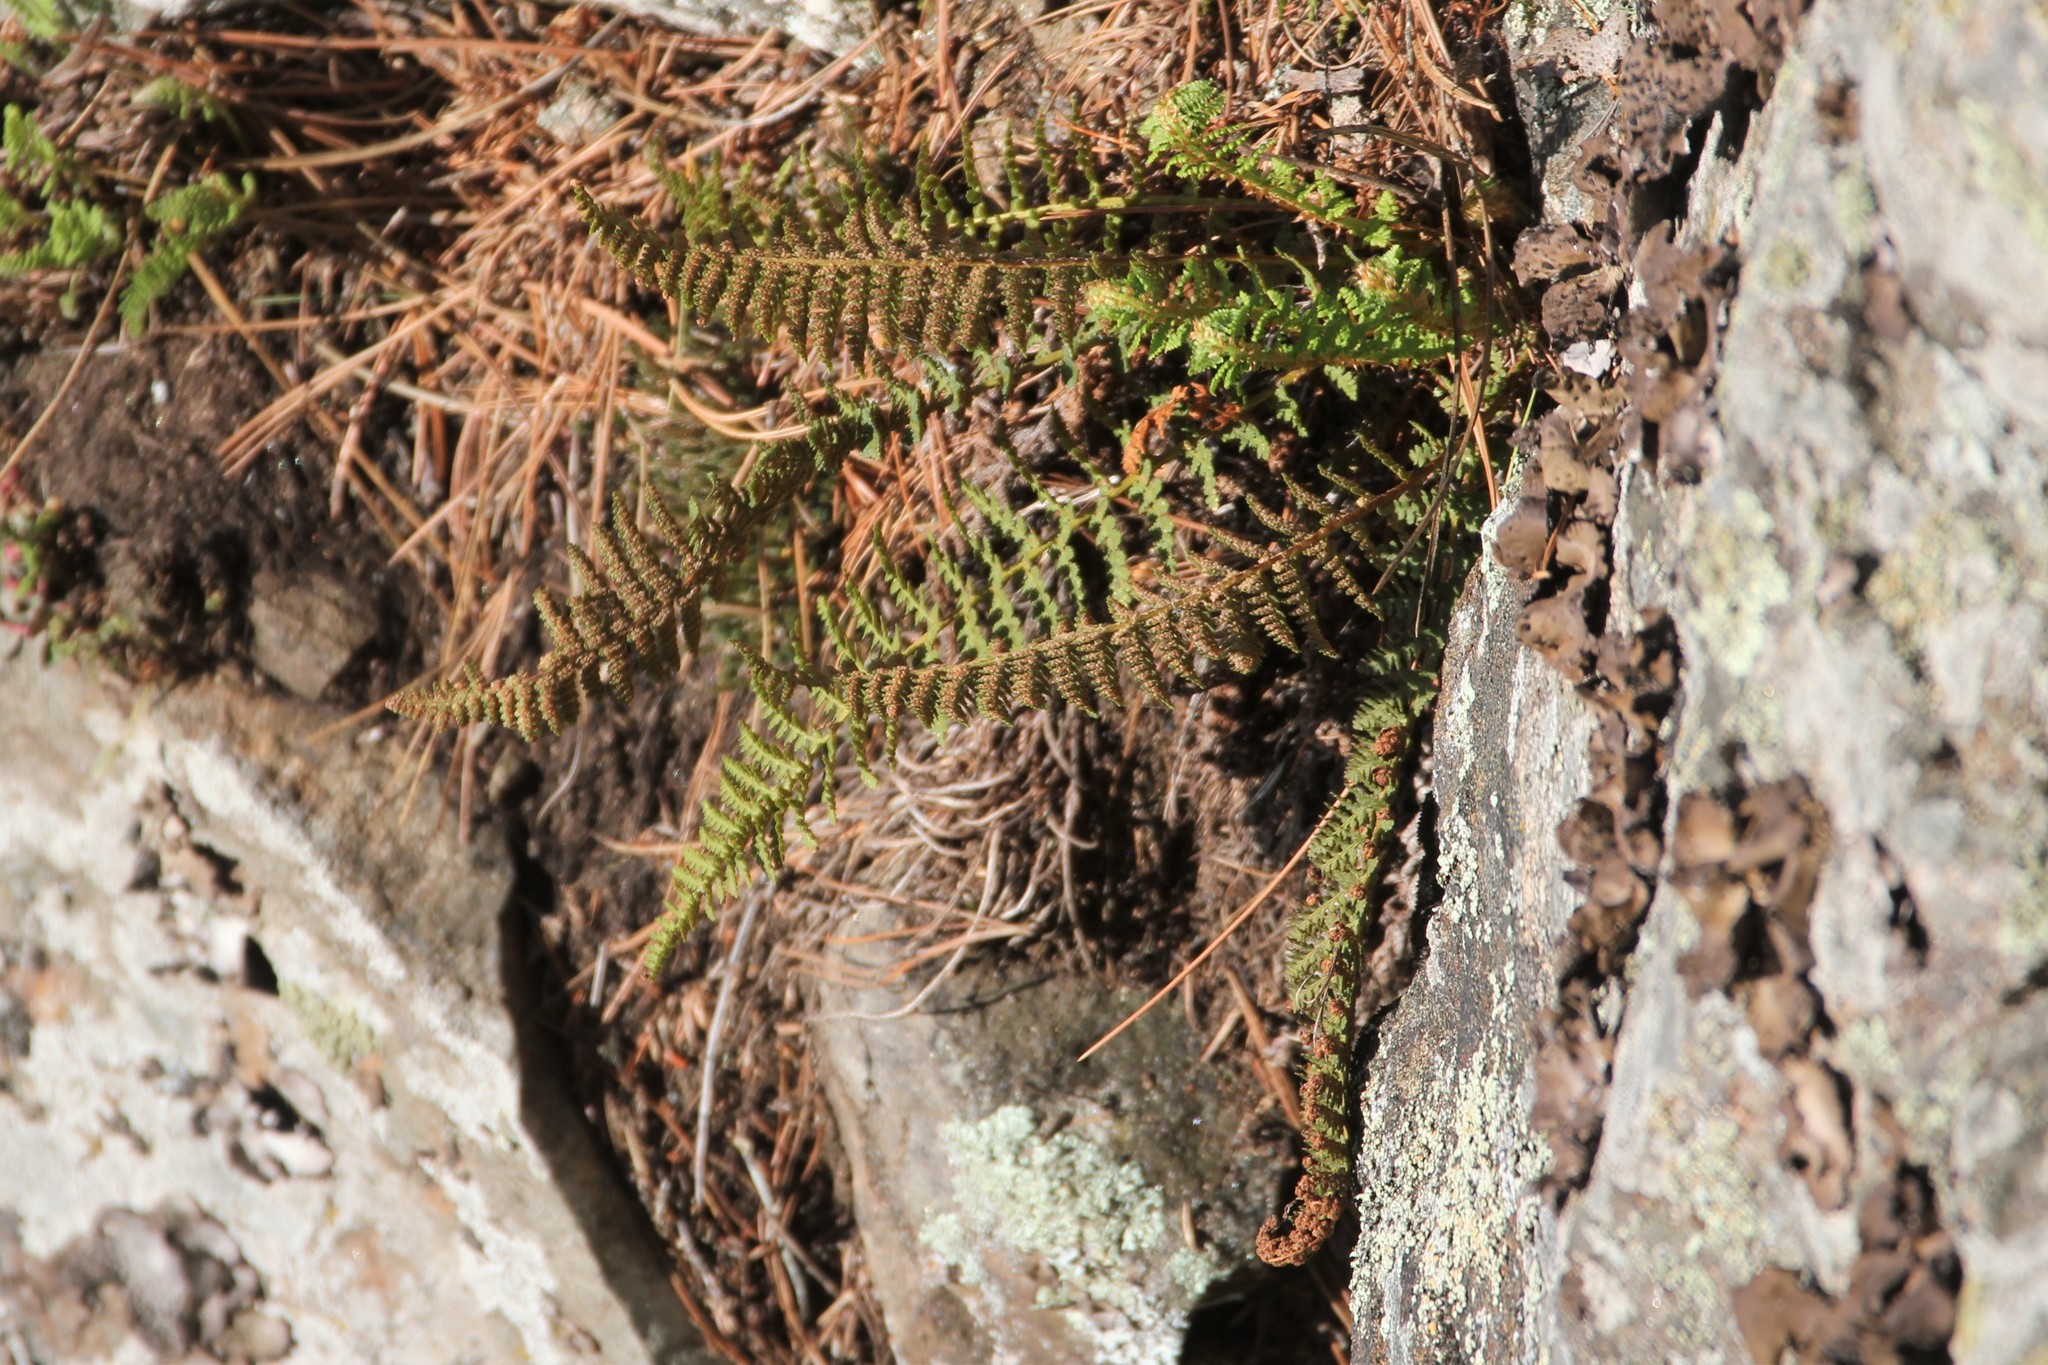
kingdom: Plantae
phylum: Tracheophyta
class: Polypodiopsida
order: Polypodiales
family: Dryopteridaceae
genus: Dryopteris
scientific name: Dryopteris fragrans
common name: Fragrant wood fern
